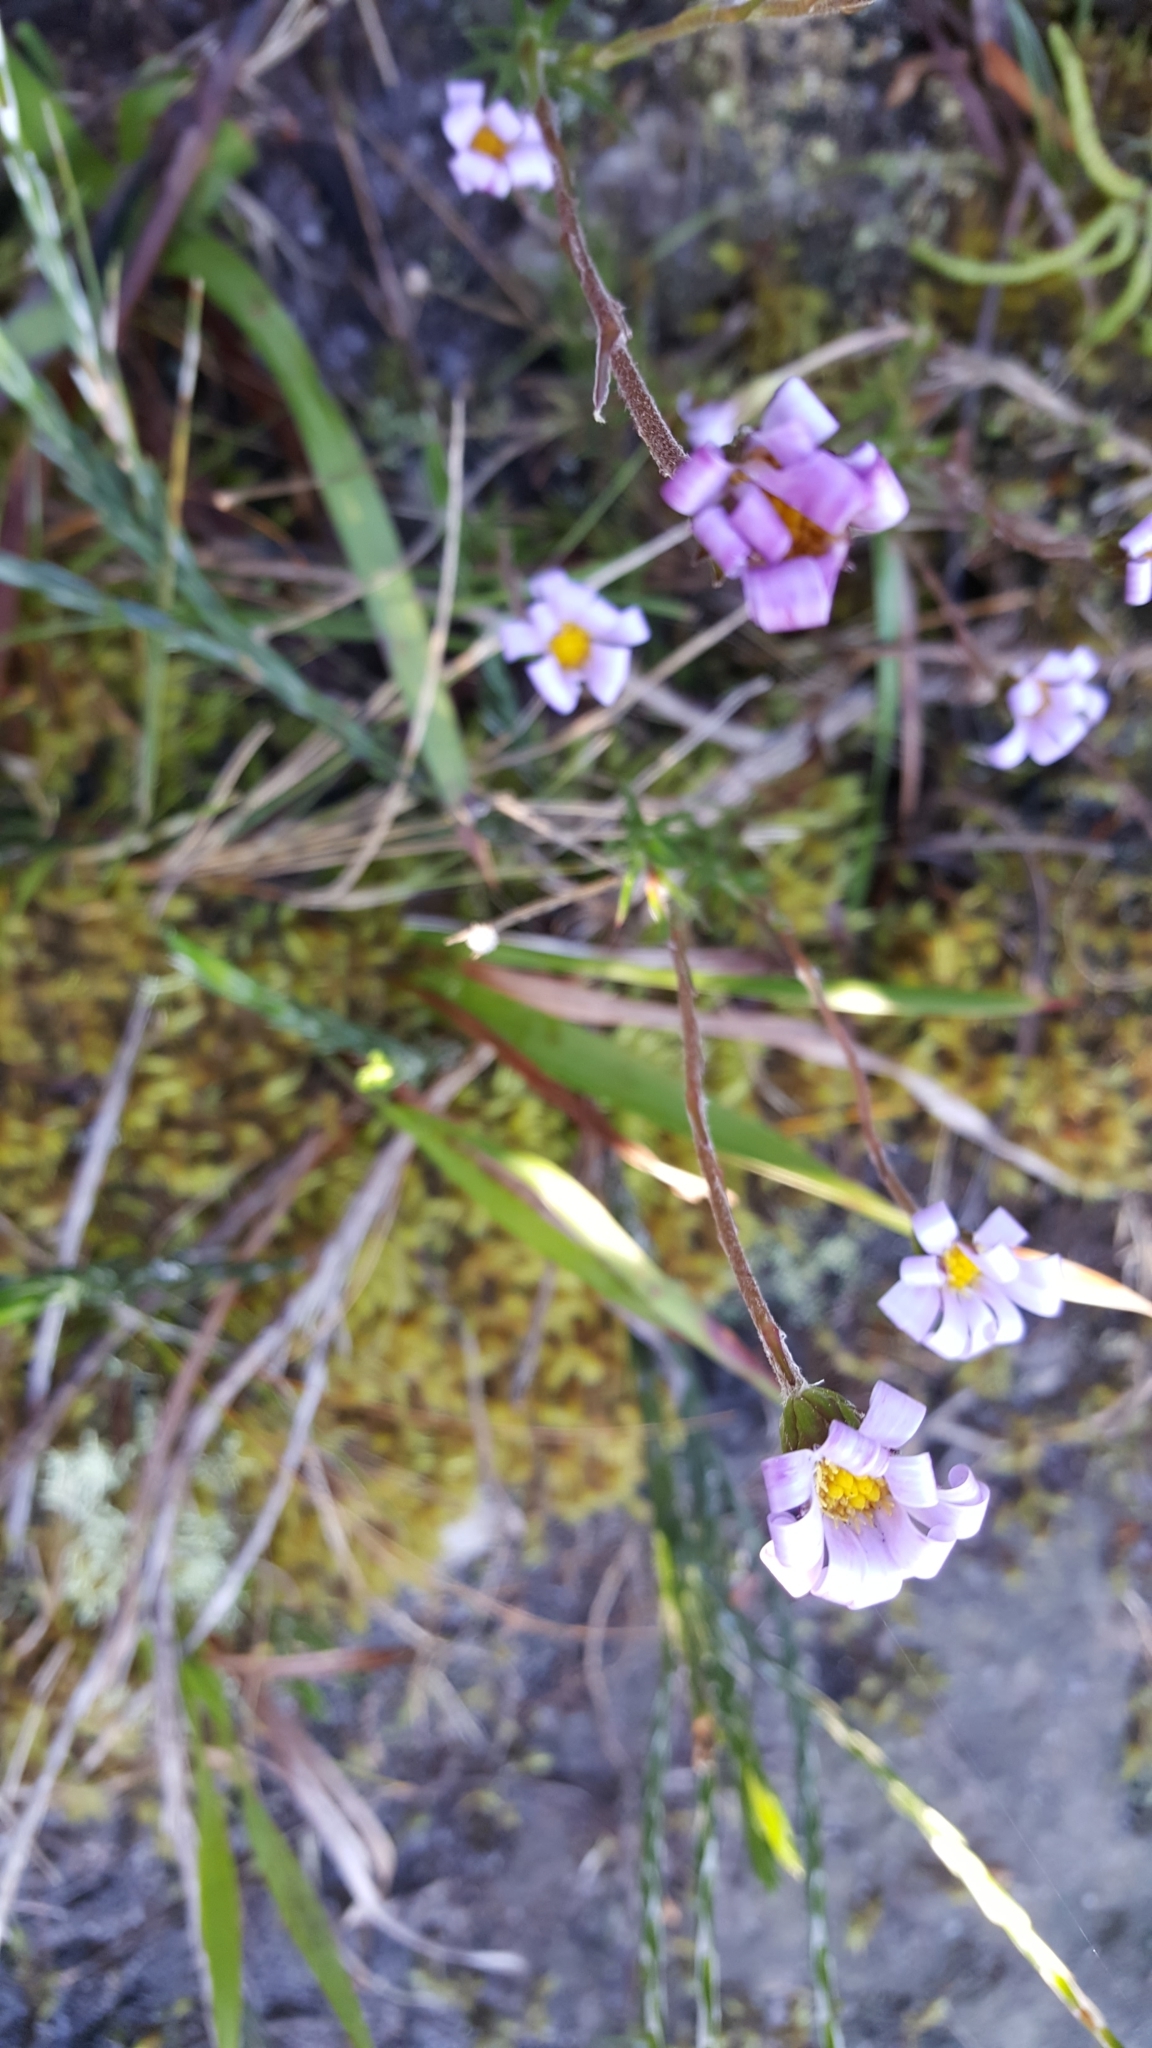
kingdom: Plantae
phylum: Tracheophyta
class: Magnoliopsida
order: Asterales
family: Asteraceae
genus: Zyrphelis
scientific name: Zyrphelis taxifolia
